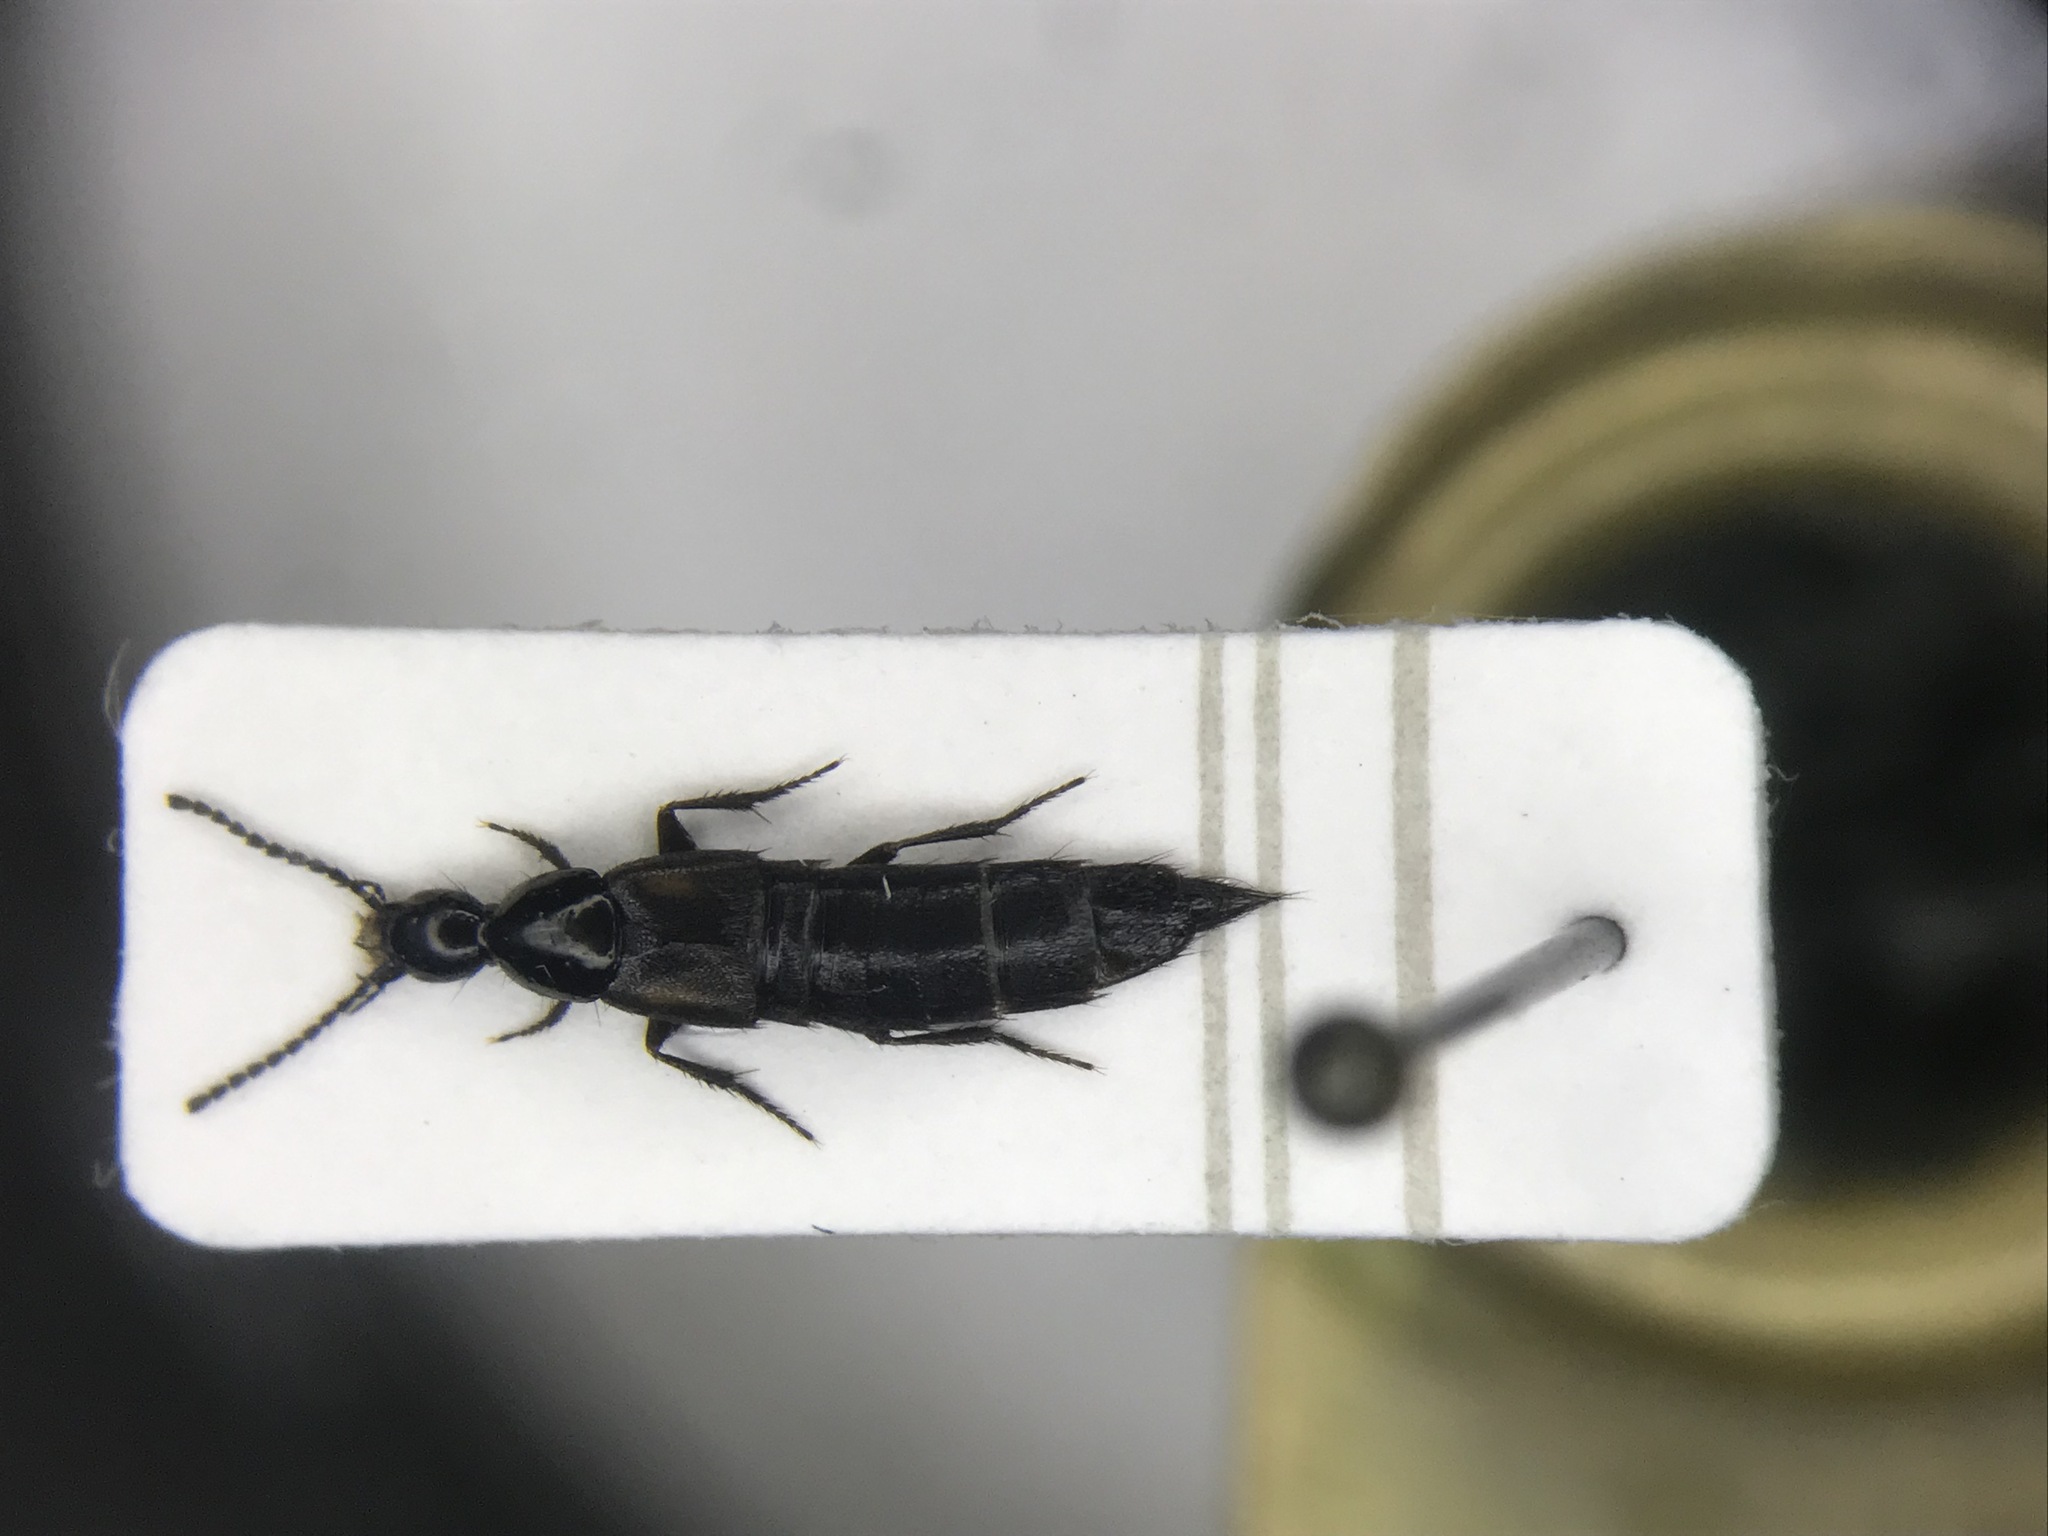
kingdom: Animalia
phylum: Arthropoda
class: Insecta
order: Coleoptera
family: Staphylinidae
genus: Philonthus
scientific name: Philonthus varians
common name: Staph beetle
